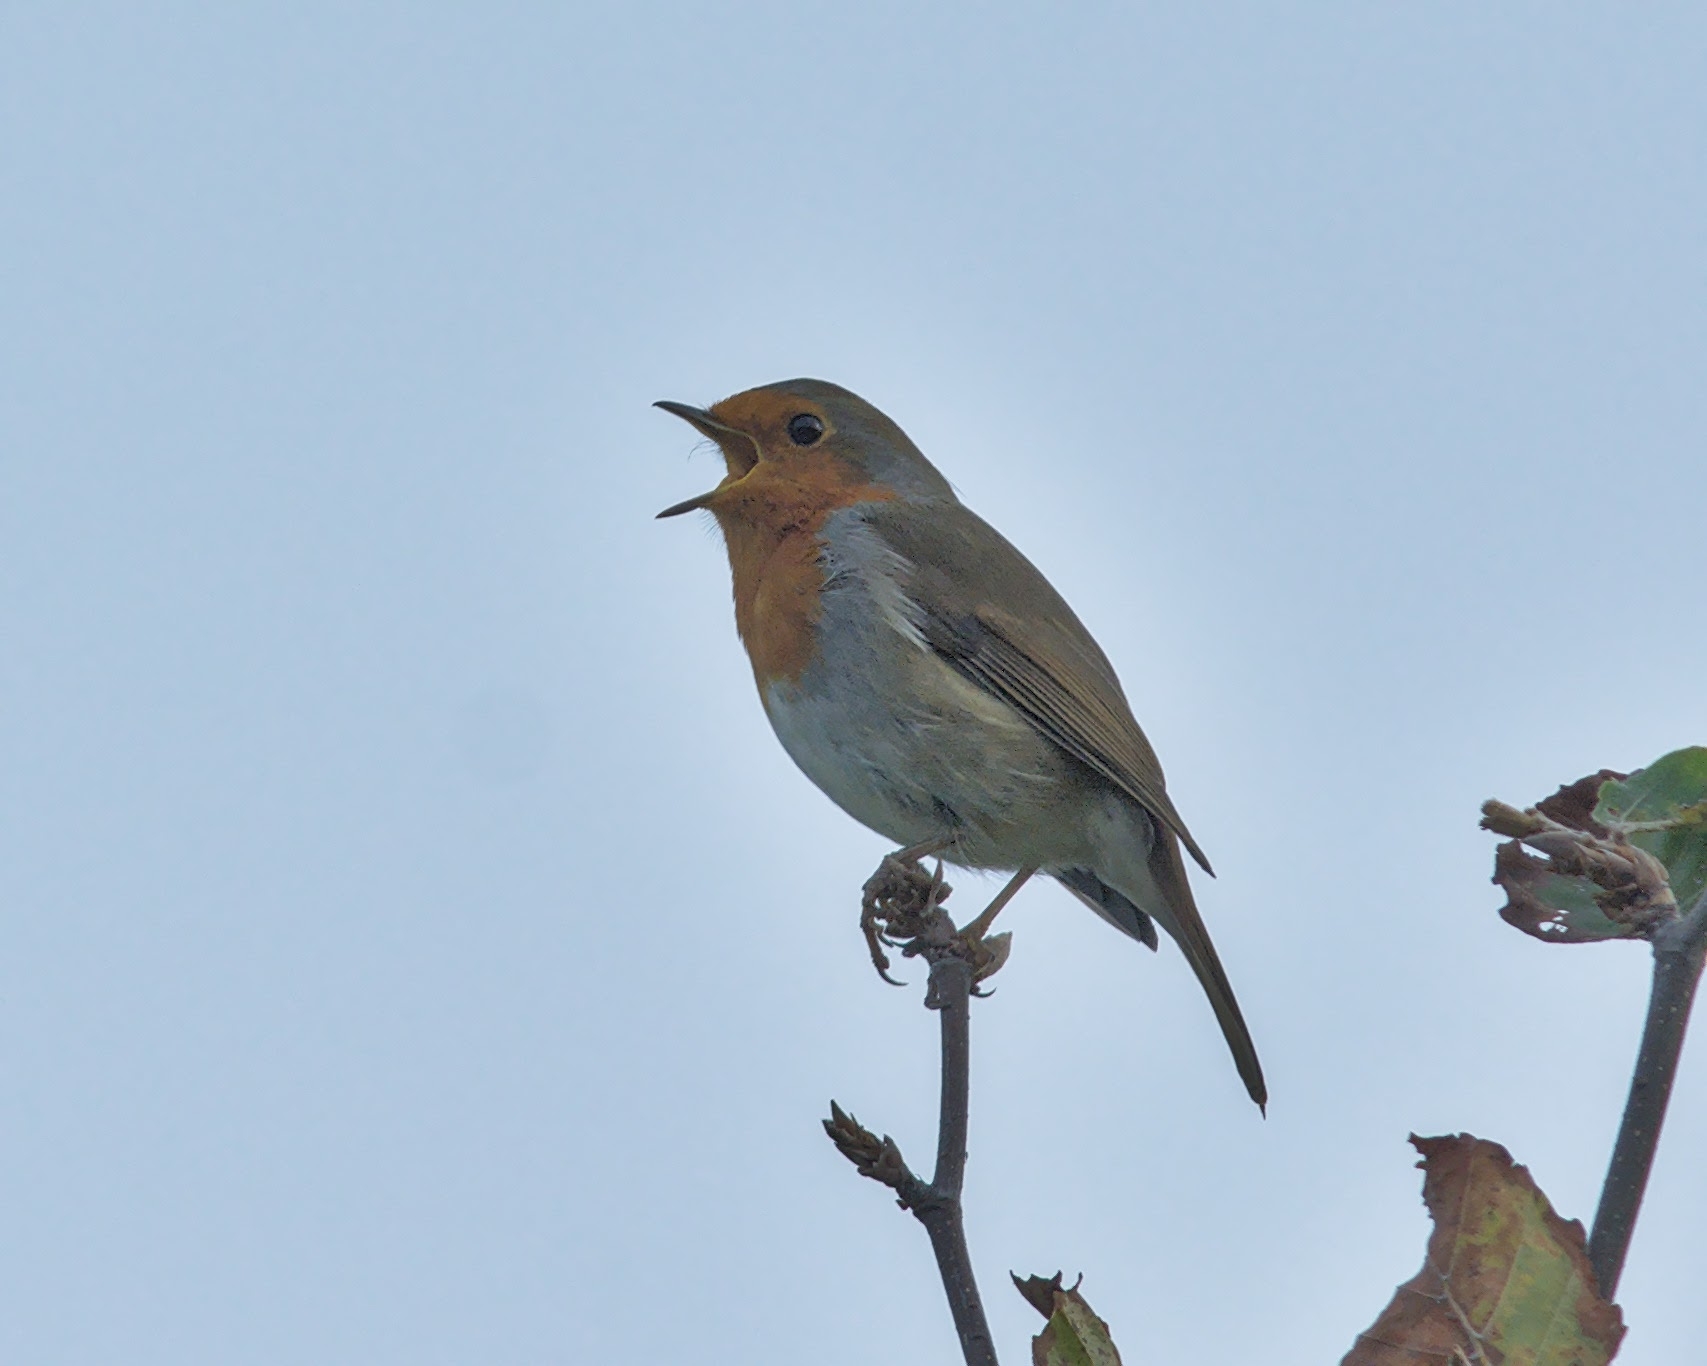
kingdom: Animalia
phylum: Chordata
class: Aves
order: Passeriformes
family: Muscicapidae
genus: Erithacus
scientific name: Erithacus rubecula
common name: European robin
